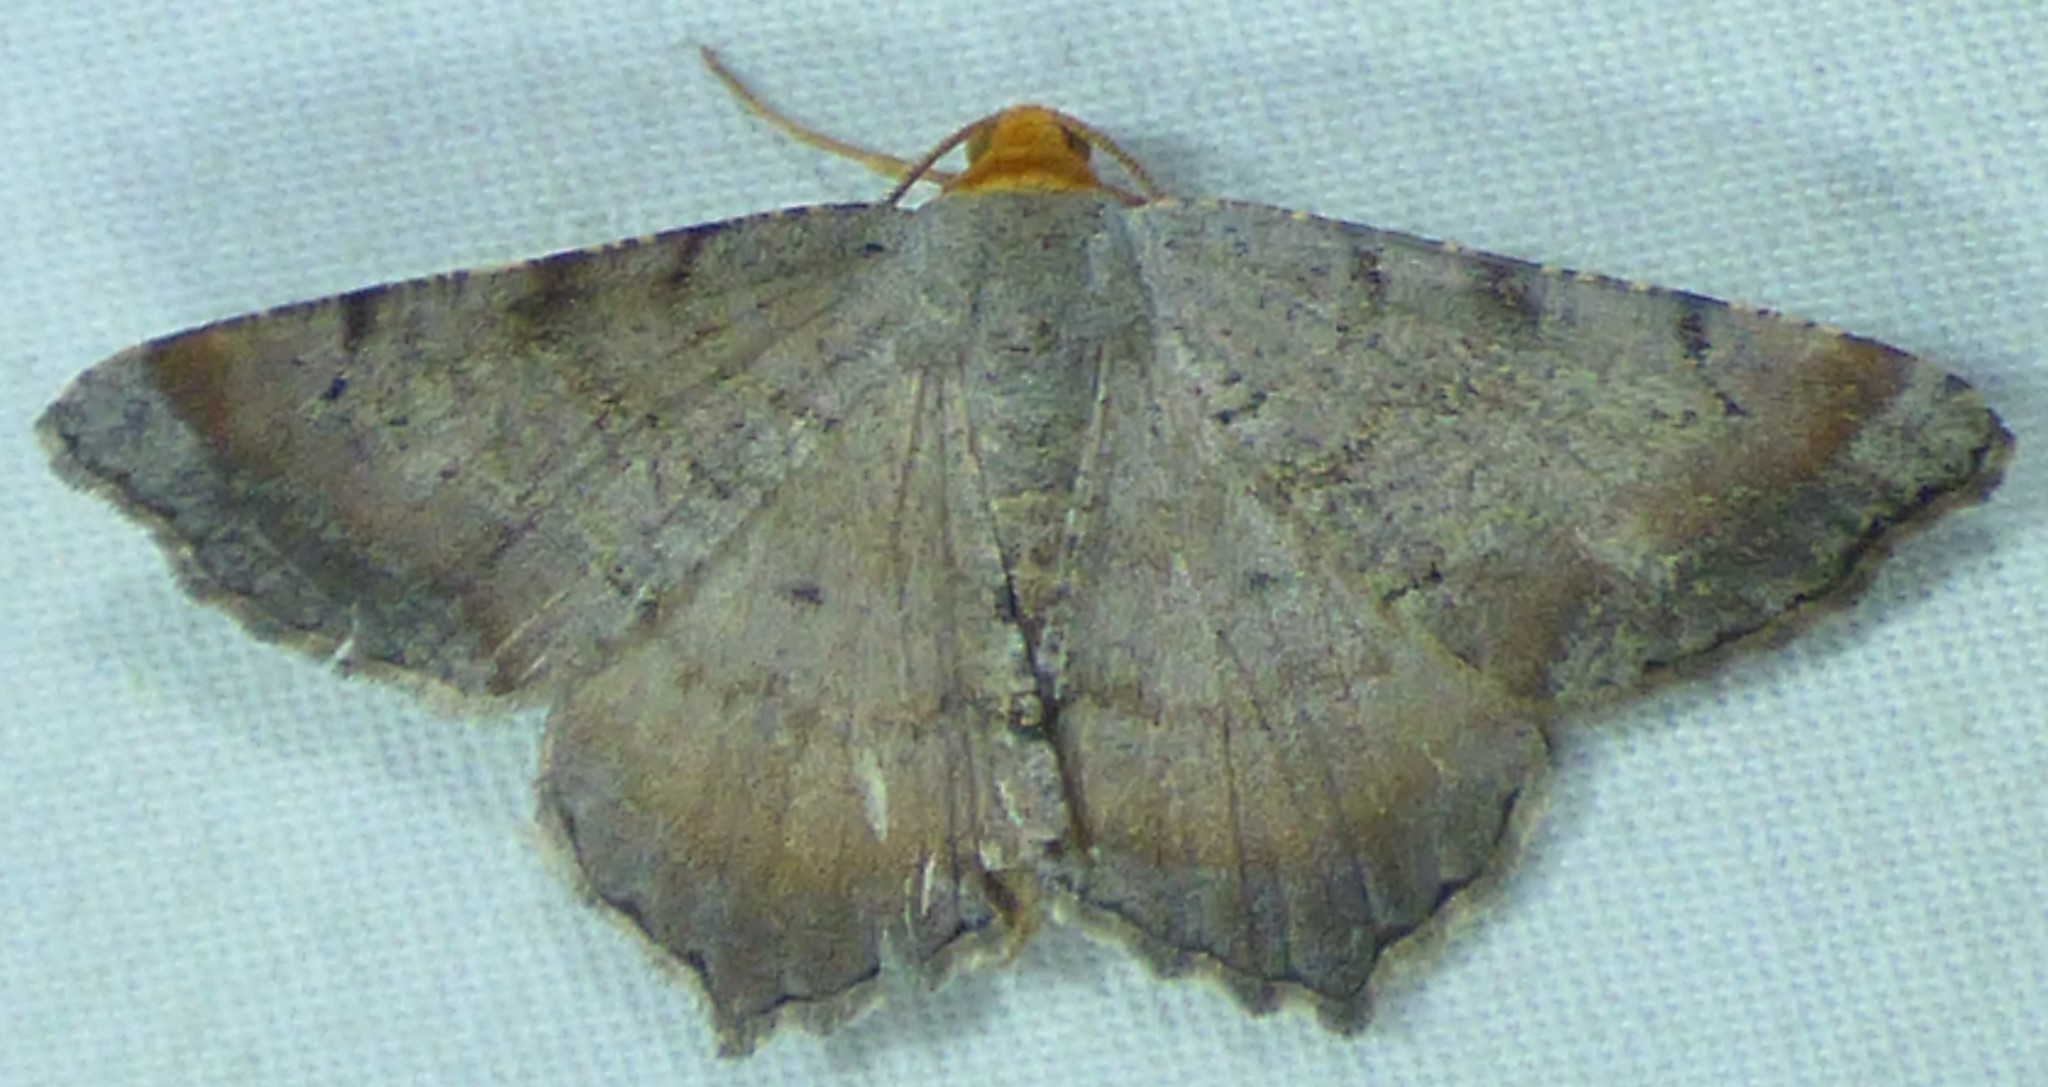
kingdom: Animalia
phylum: Arthropoda
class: Insecta
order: Lepidoptera
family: Geometridae
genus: Macaria
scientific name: Macaria transitaria
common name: Blurry chocolate angle
